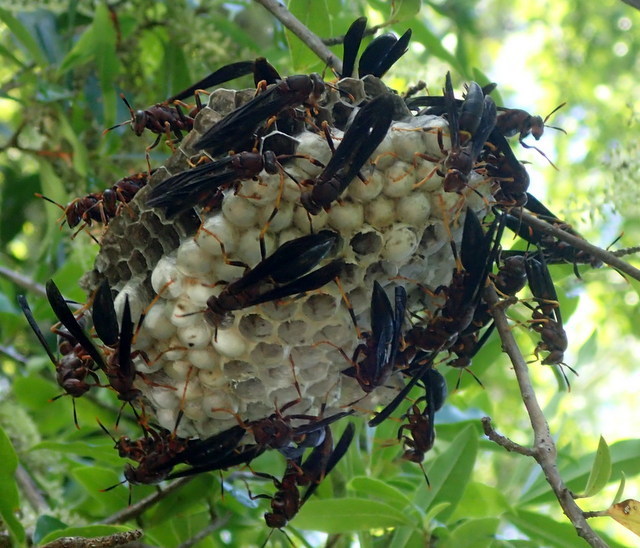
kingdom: Animalia
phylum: Arthropoda
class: Insecta
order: Hymenoptera
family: Eumenidae
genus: Polistes
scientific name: Polistes annularis
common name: Ringed paper wasp
